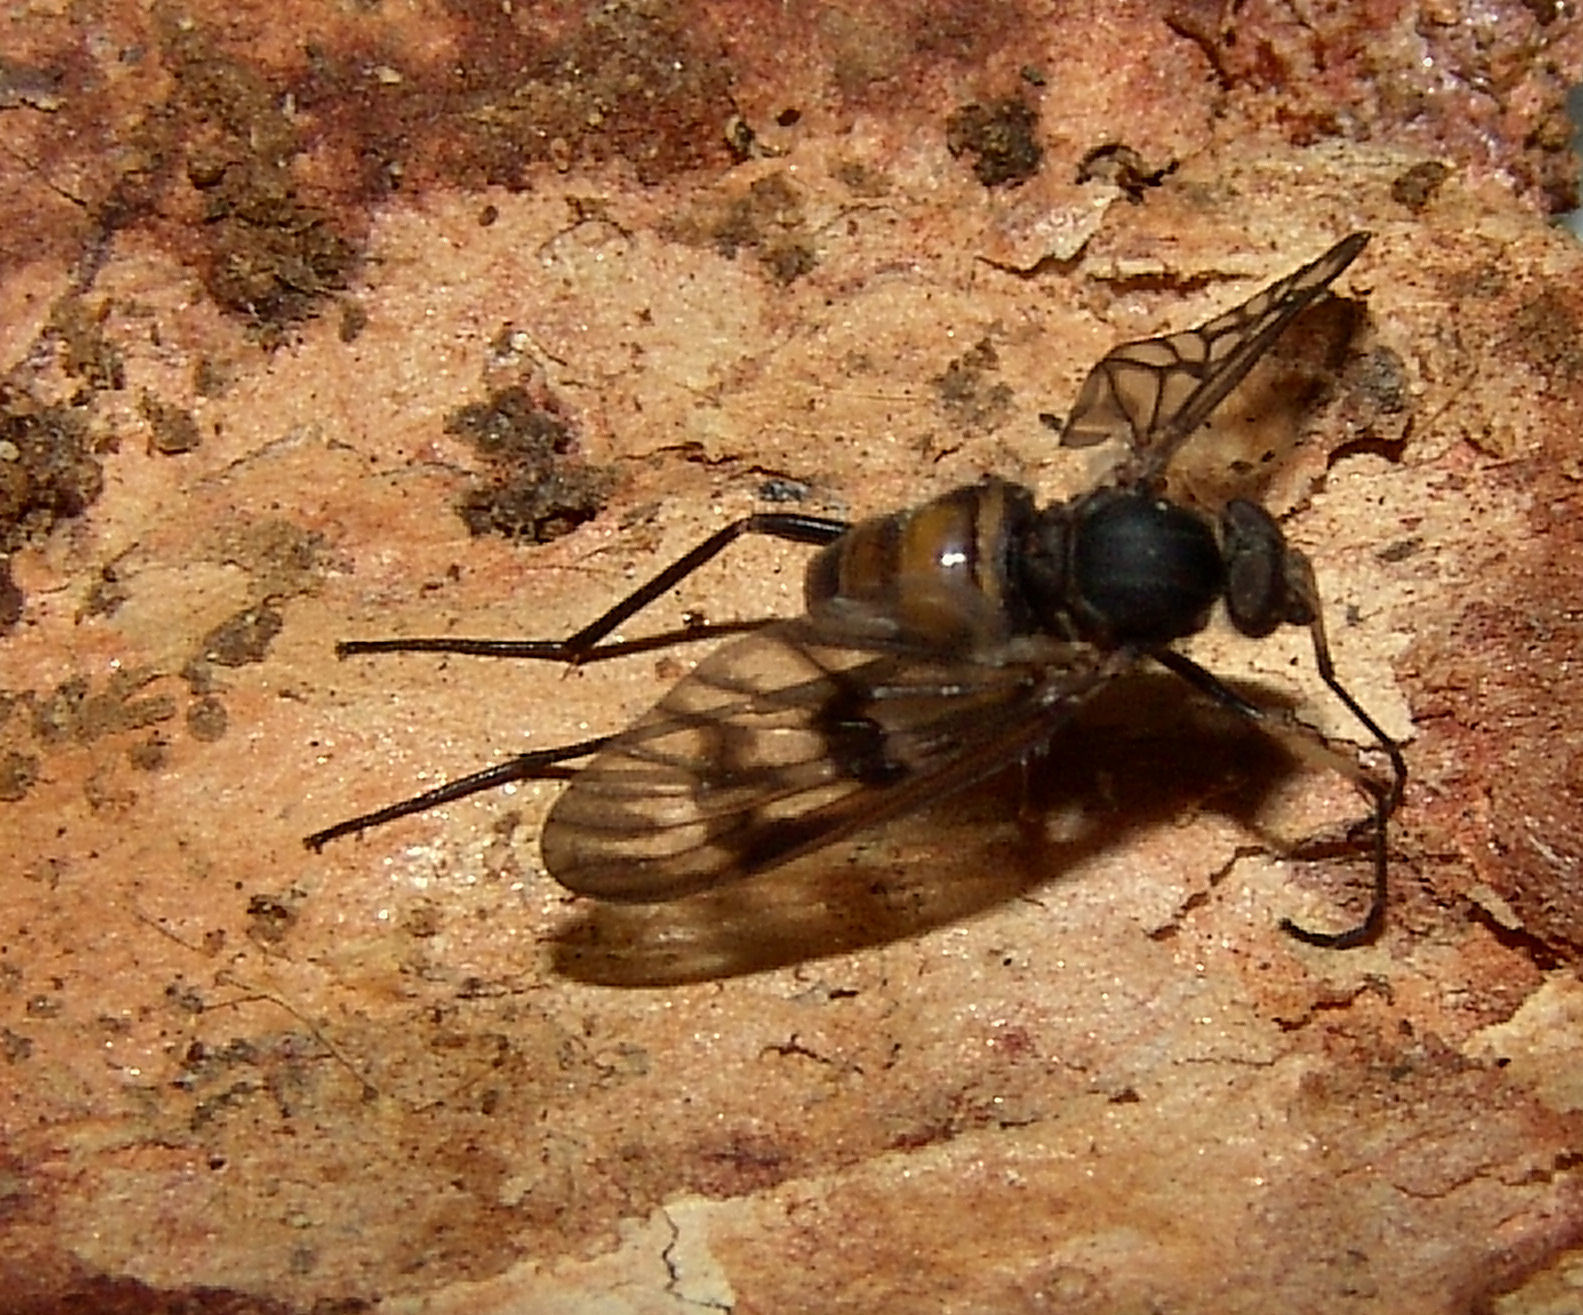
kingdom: Animalia
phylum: Arthropoda
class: Insecta
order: Diptera
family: Rhagionidae
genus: Rhagio
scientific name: Rhagio mystaceus
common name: Common snipe fly
